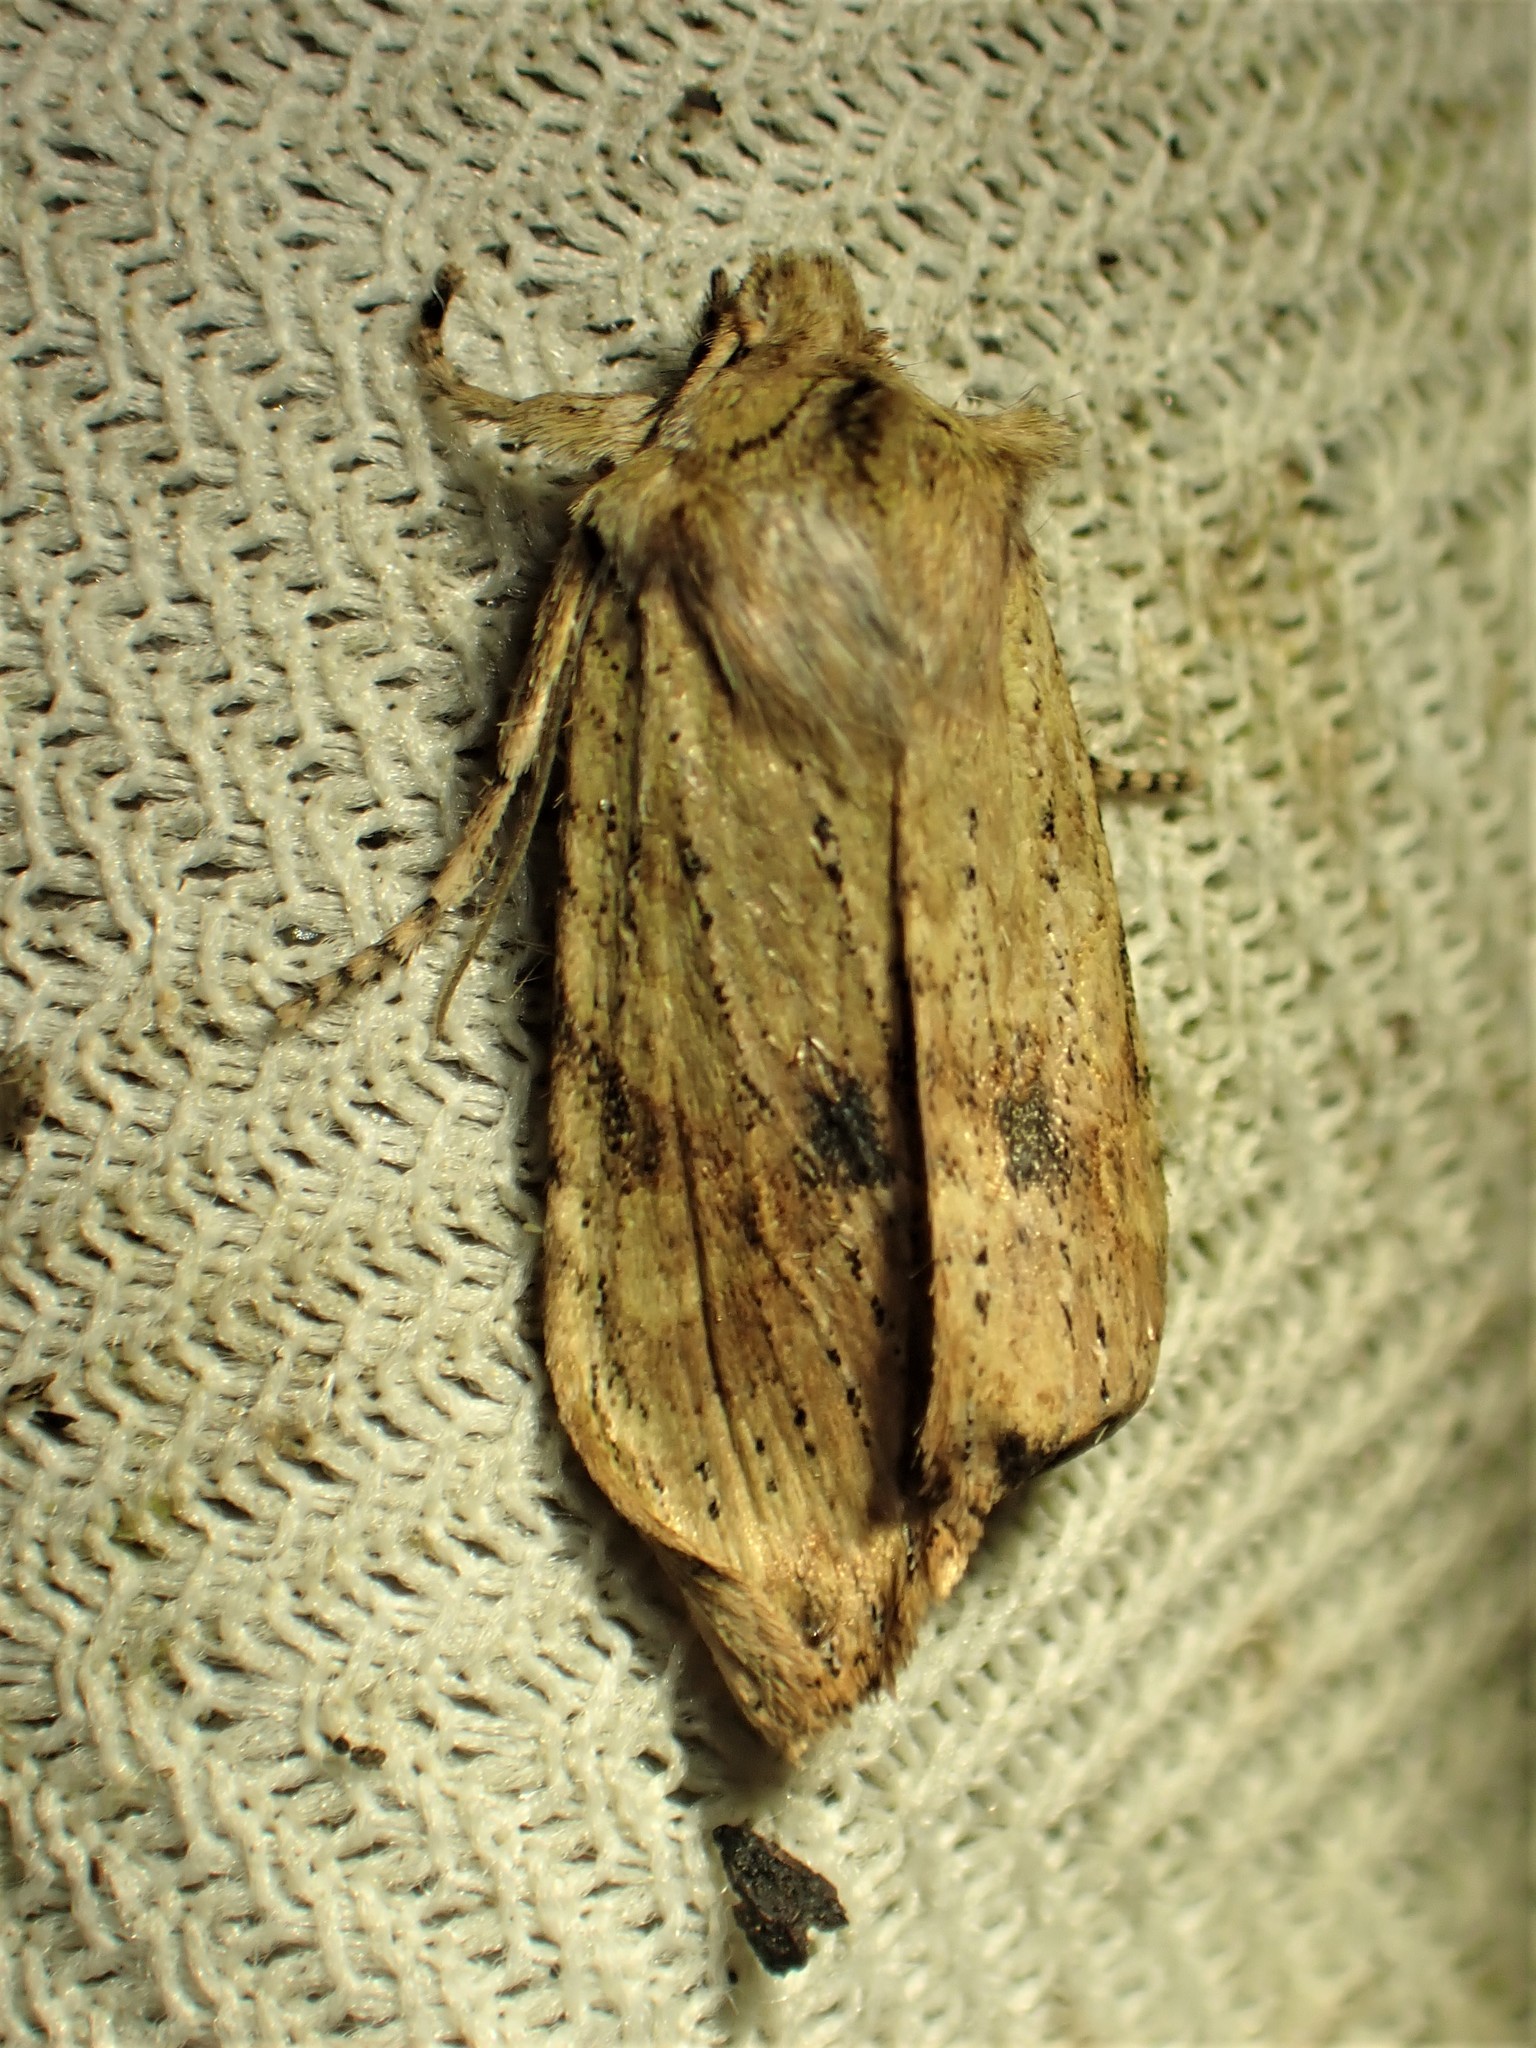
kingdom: Animalia
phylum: Arthropoda
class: Insecta
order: Lepidoptera
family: Noctuidae
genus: Lithophane
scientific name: Lithophane innominata
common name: Nameless pinion moth
